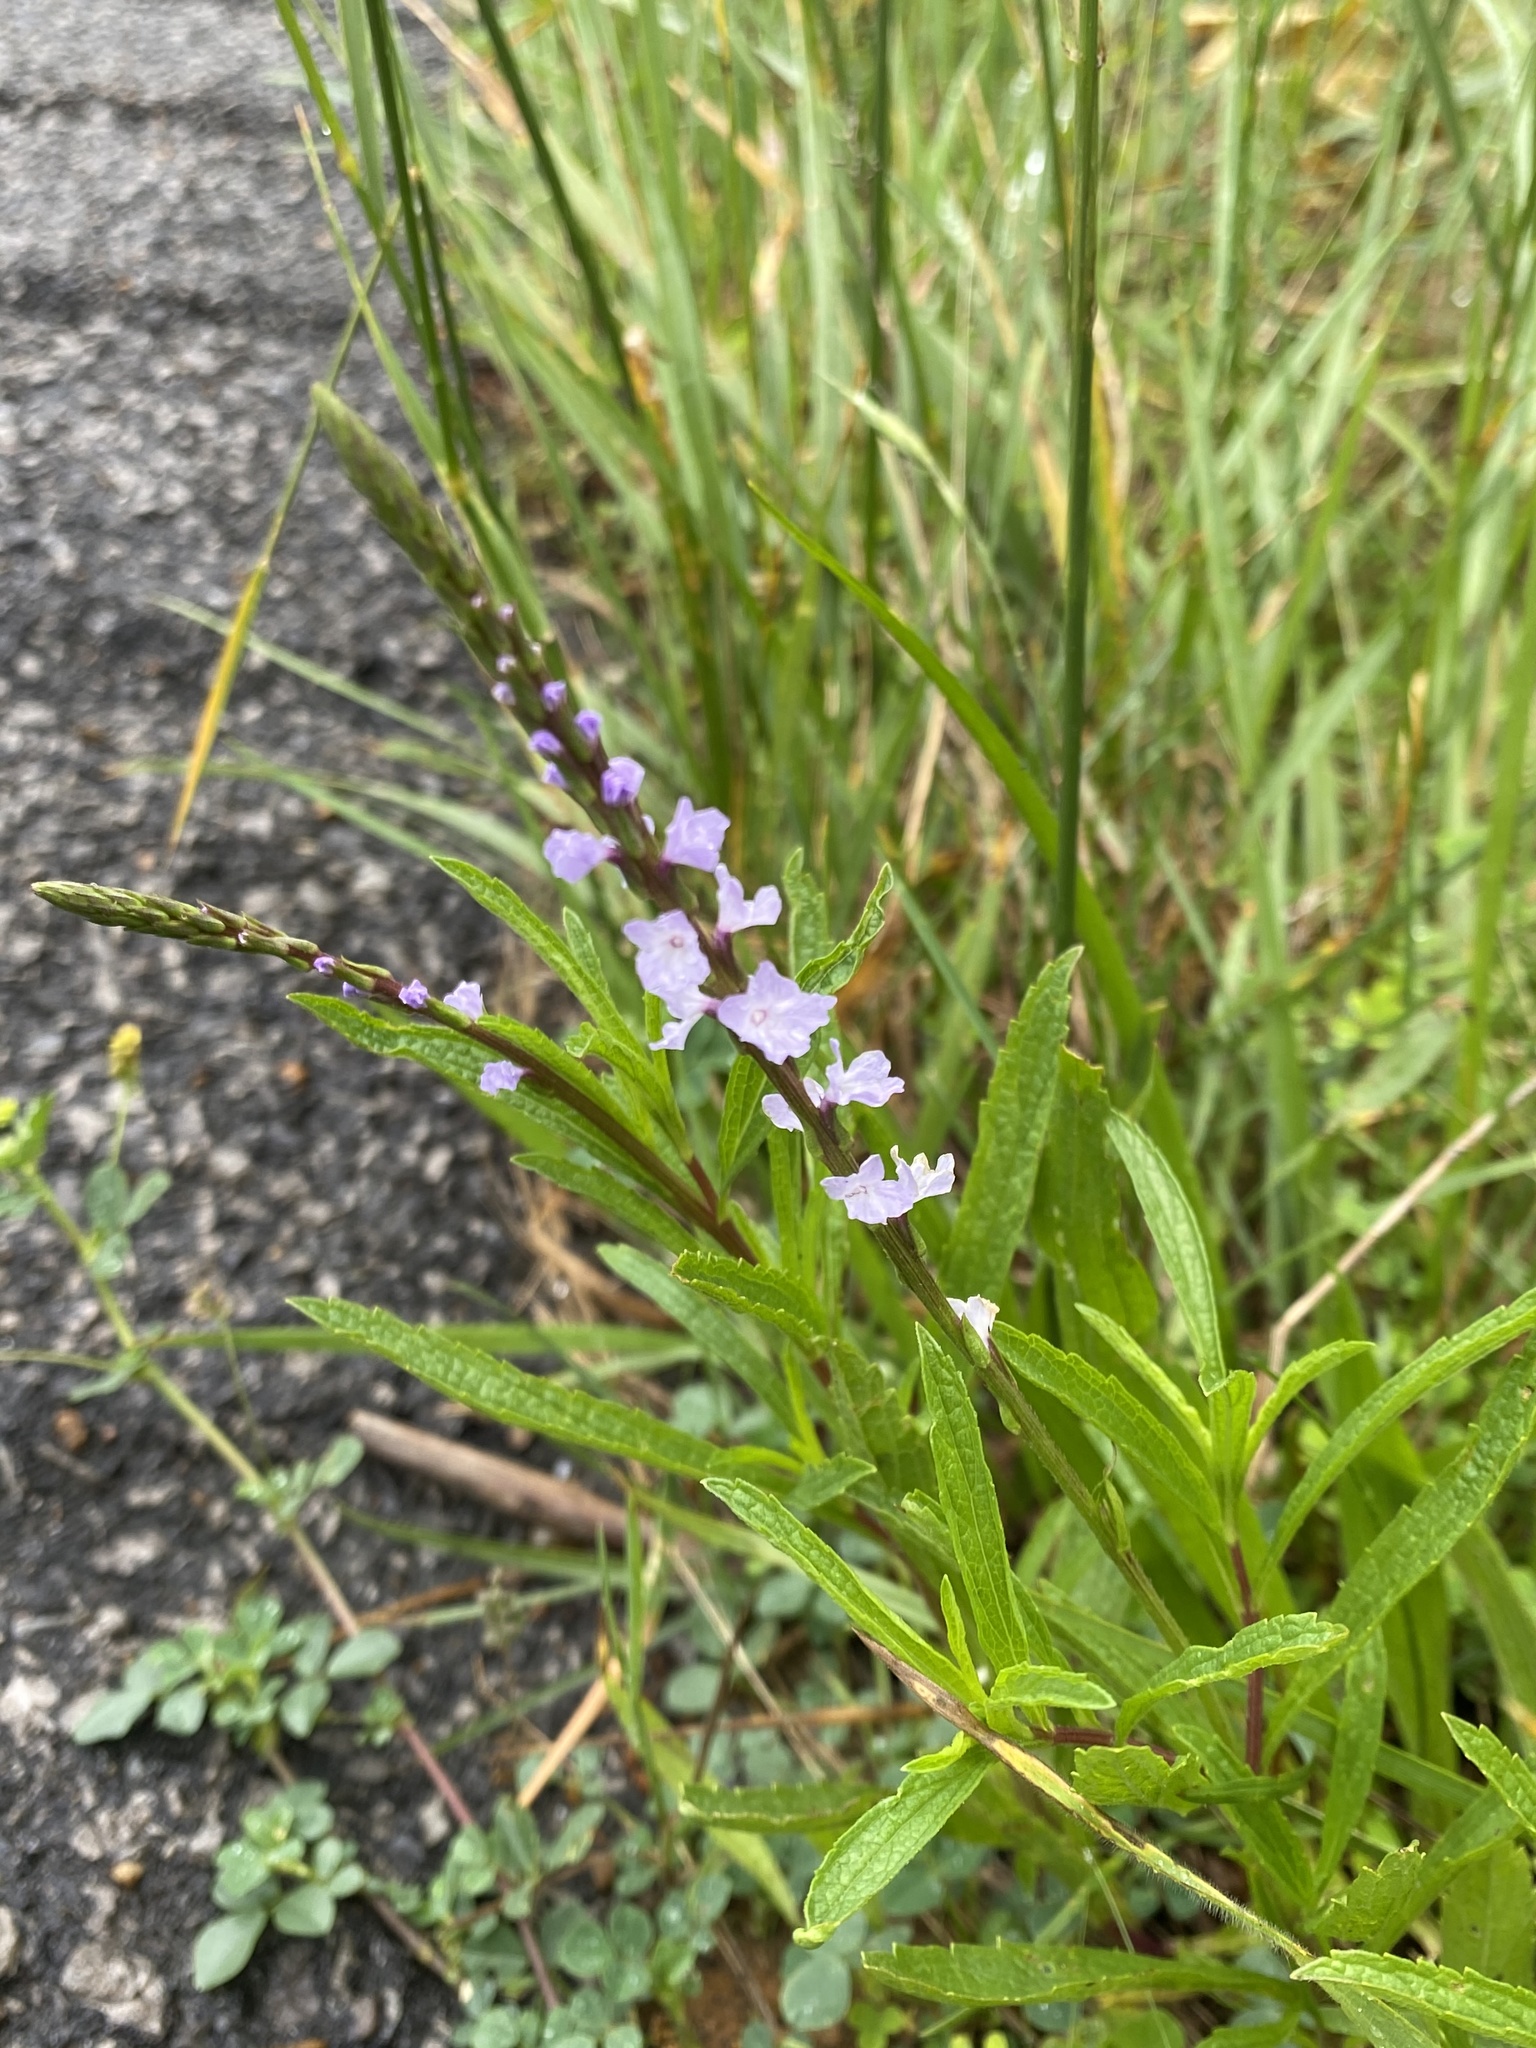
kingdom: Plantae
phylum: Tracheophyta
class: Magnoliopsida
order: Lamiales
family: Verbenaceae
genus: Verbena
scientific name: Verbena simplex
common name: Narrow-leaf vervain
